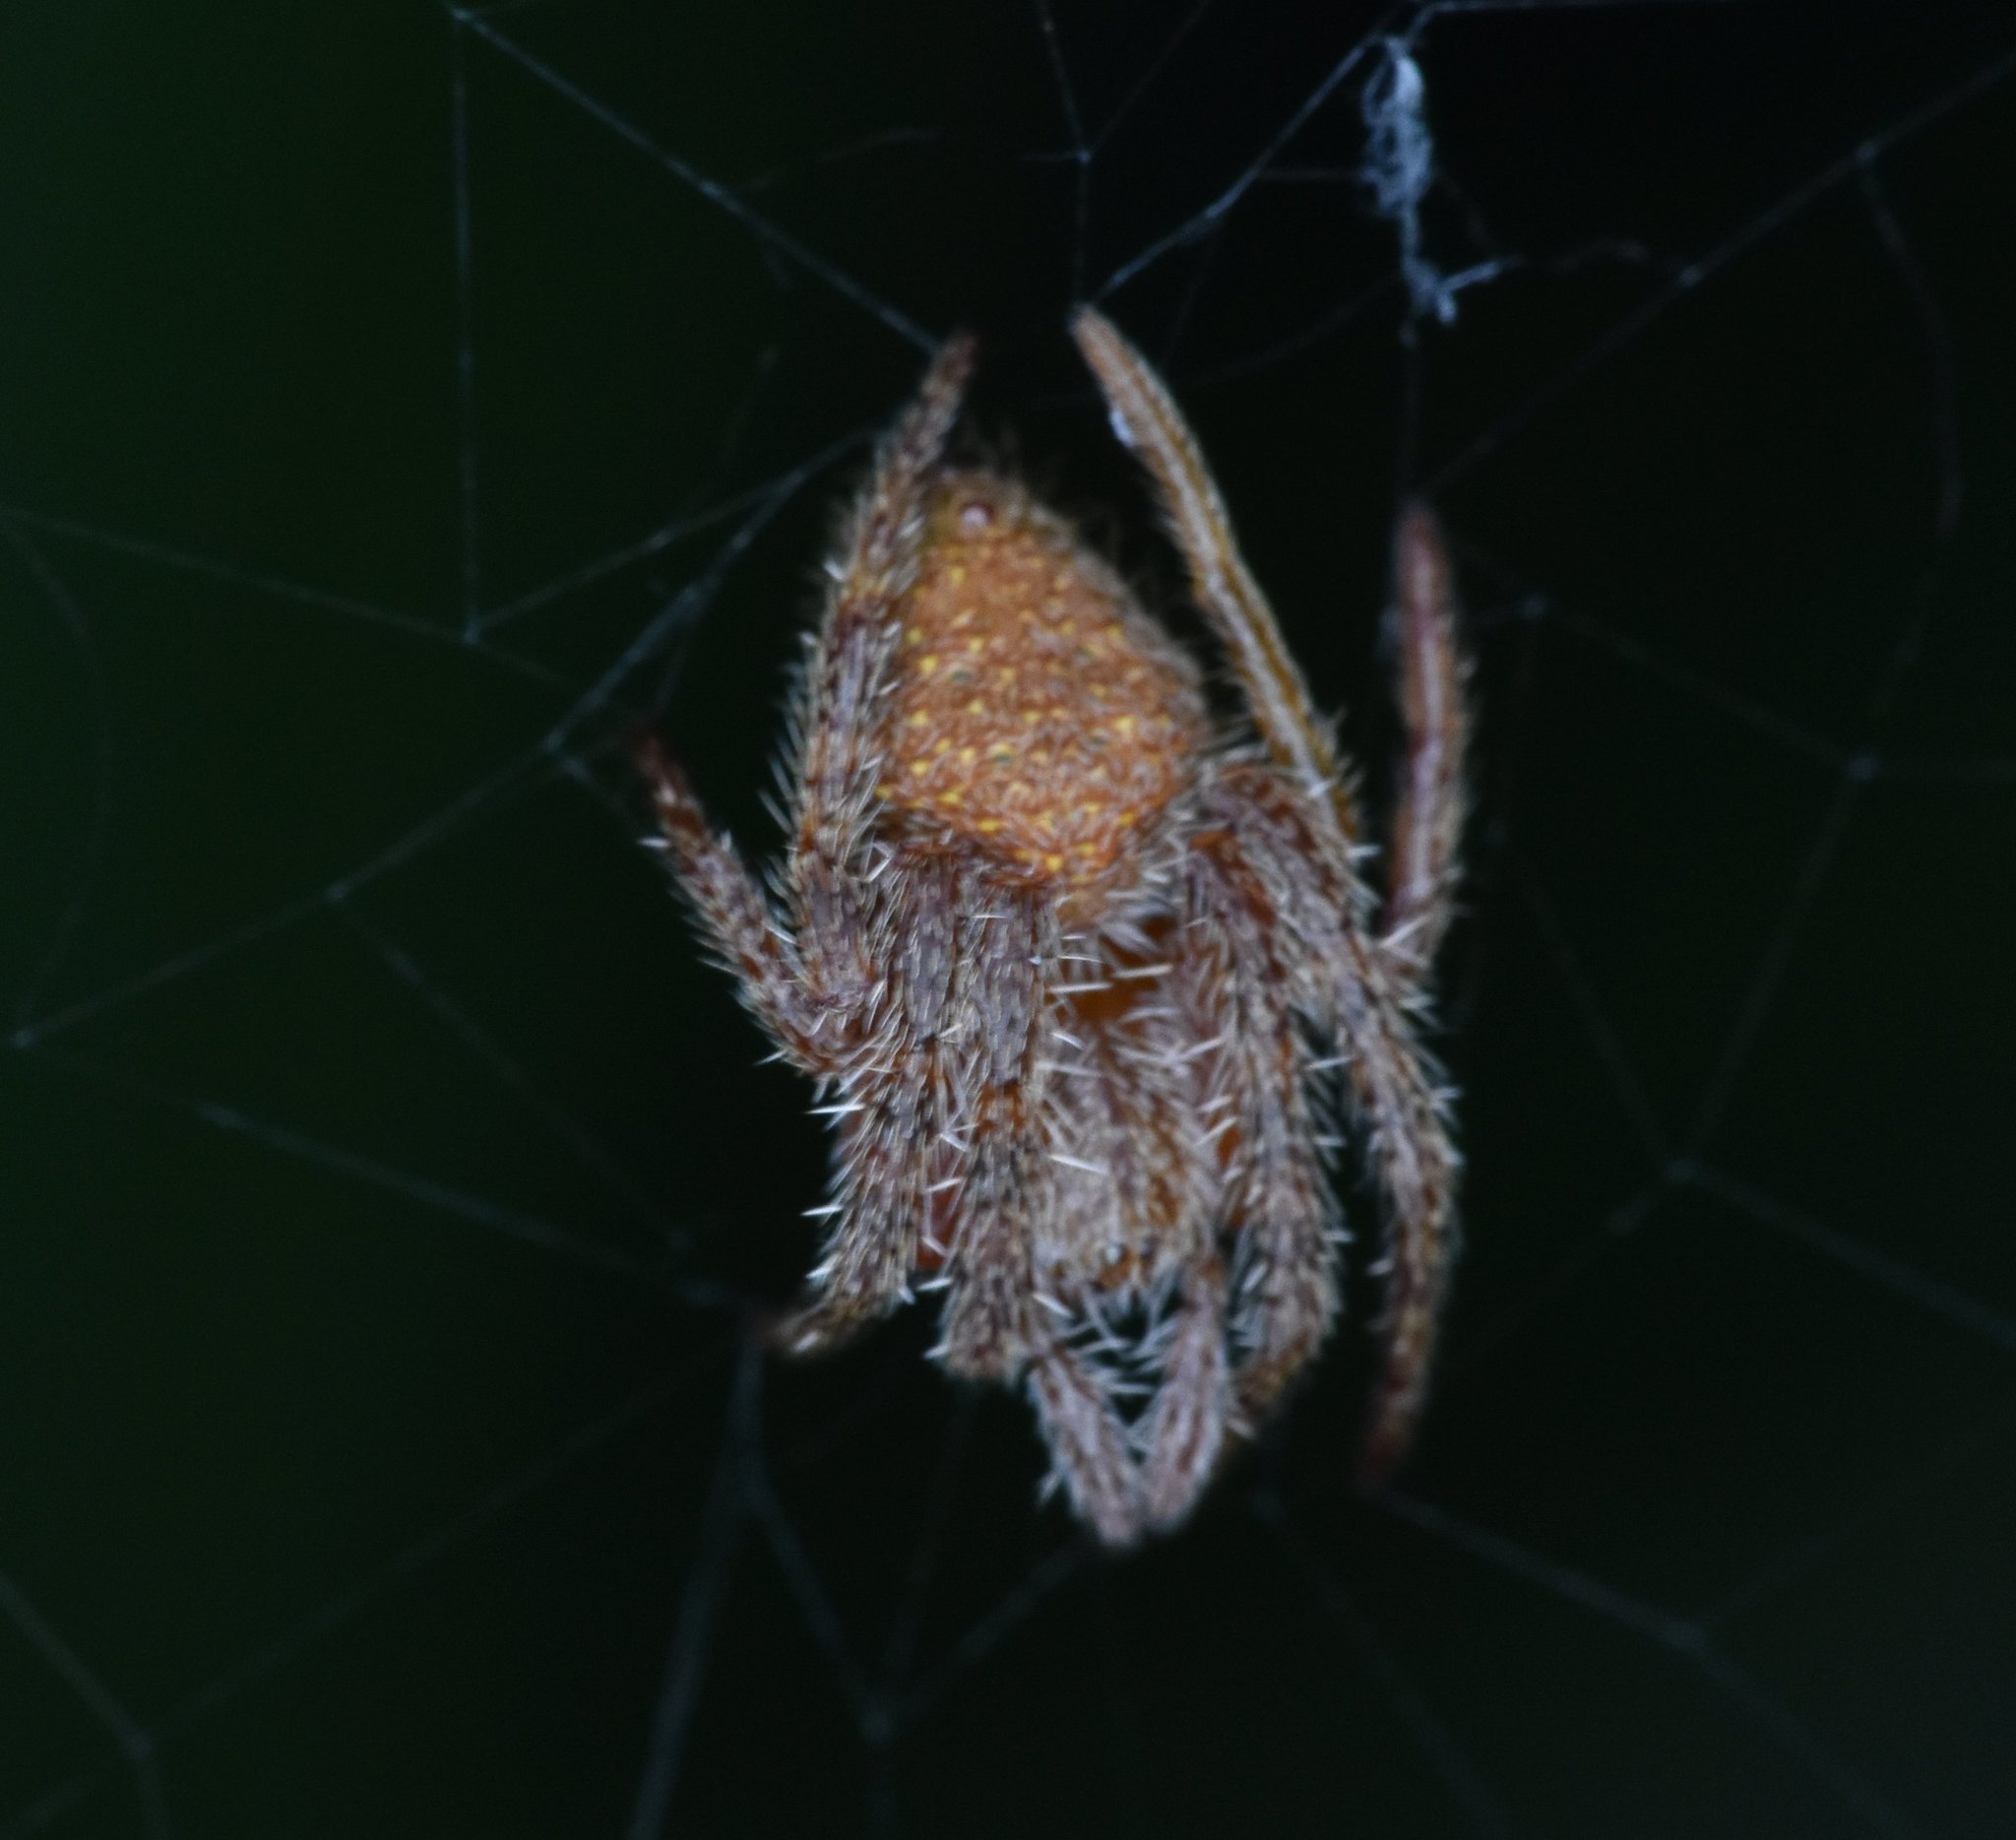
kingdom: Animalia
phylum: Arthropoda
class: Arachnida
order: Araneae
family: Araneidae
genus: Eriophora
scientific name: Eriophora ravilla
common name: Orb weavers
